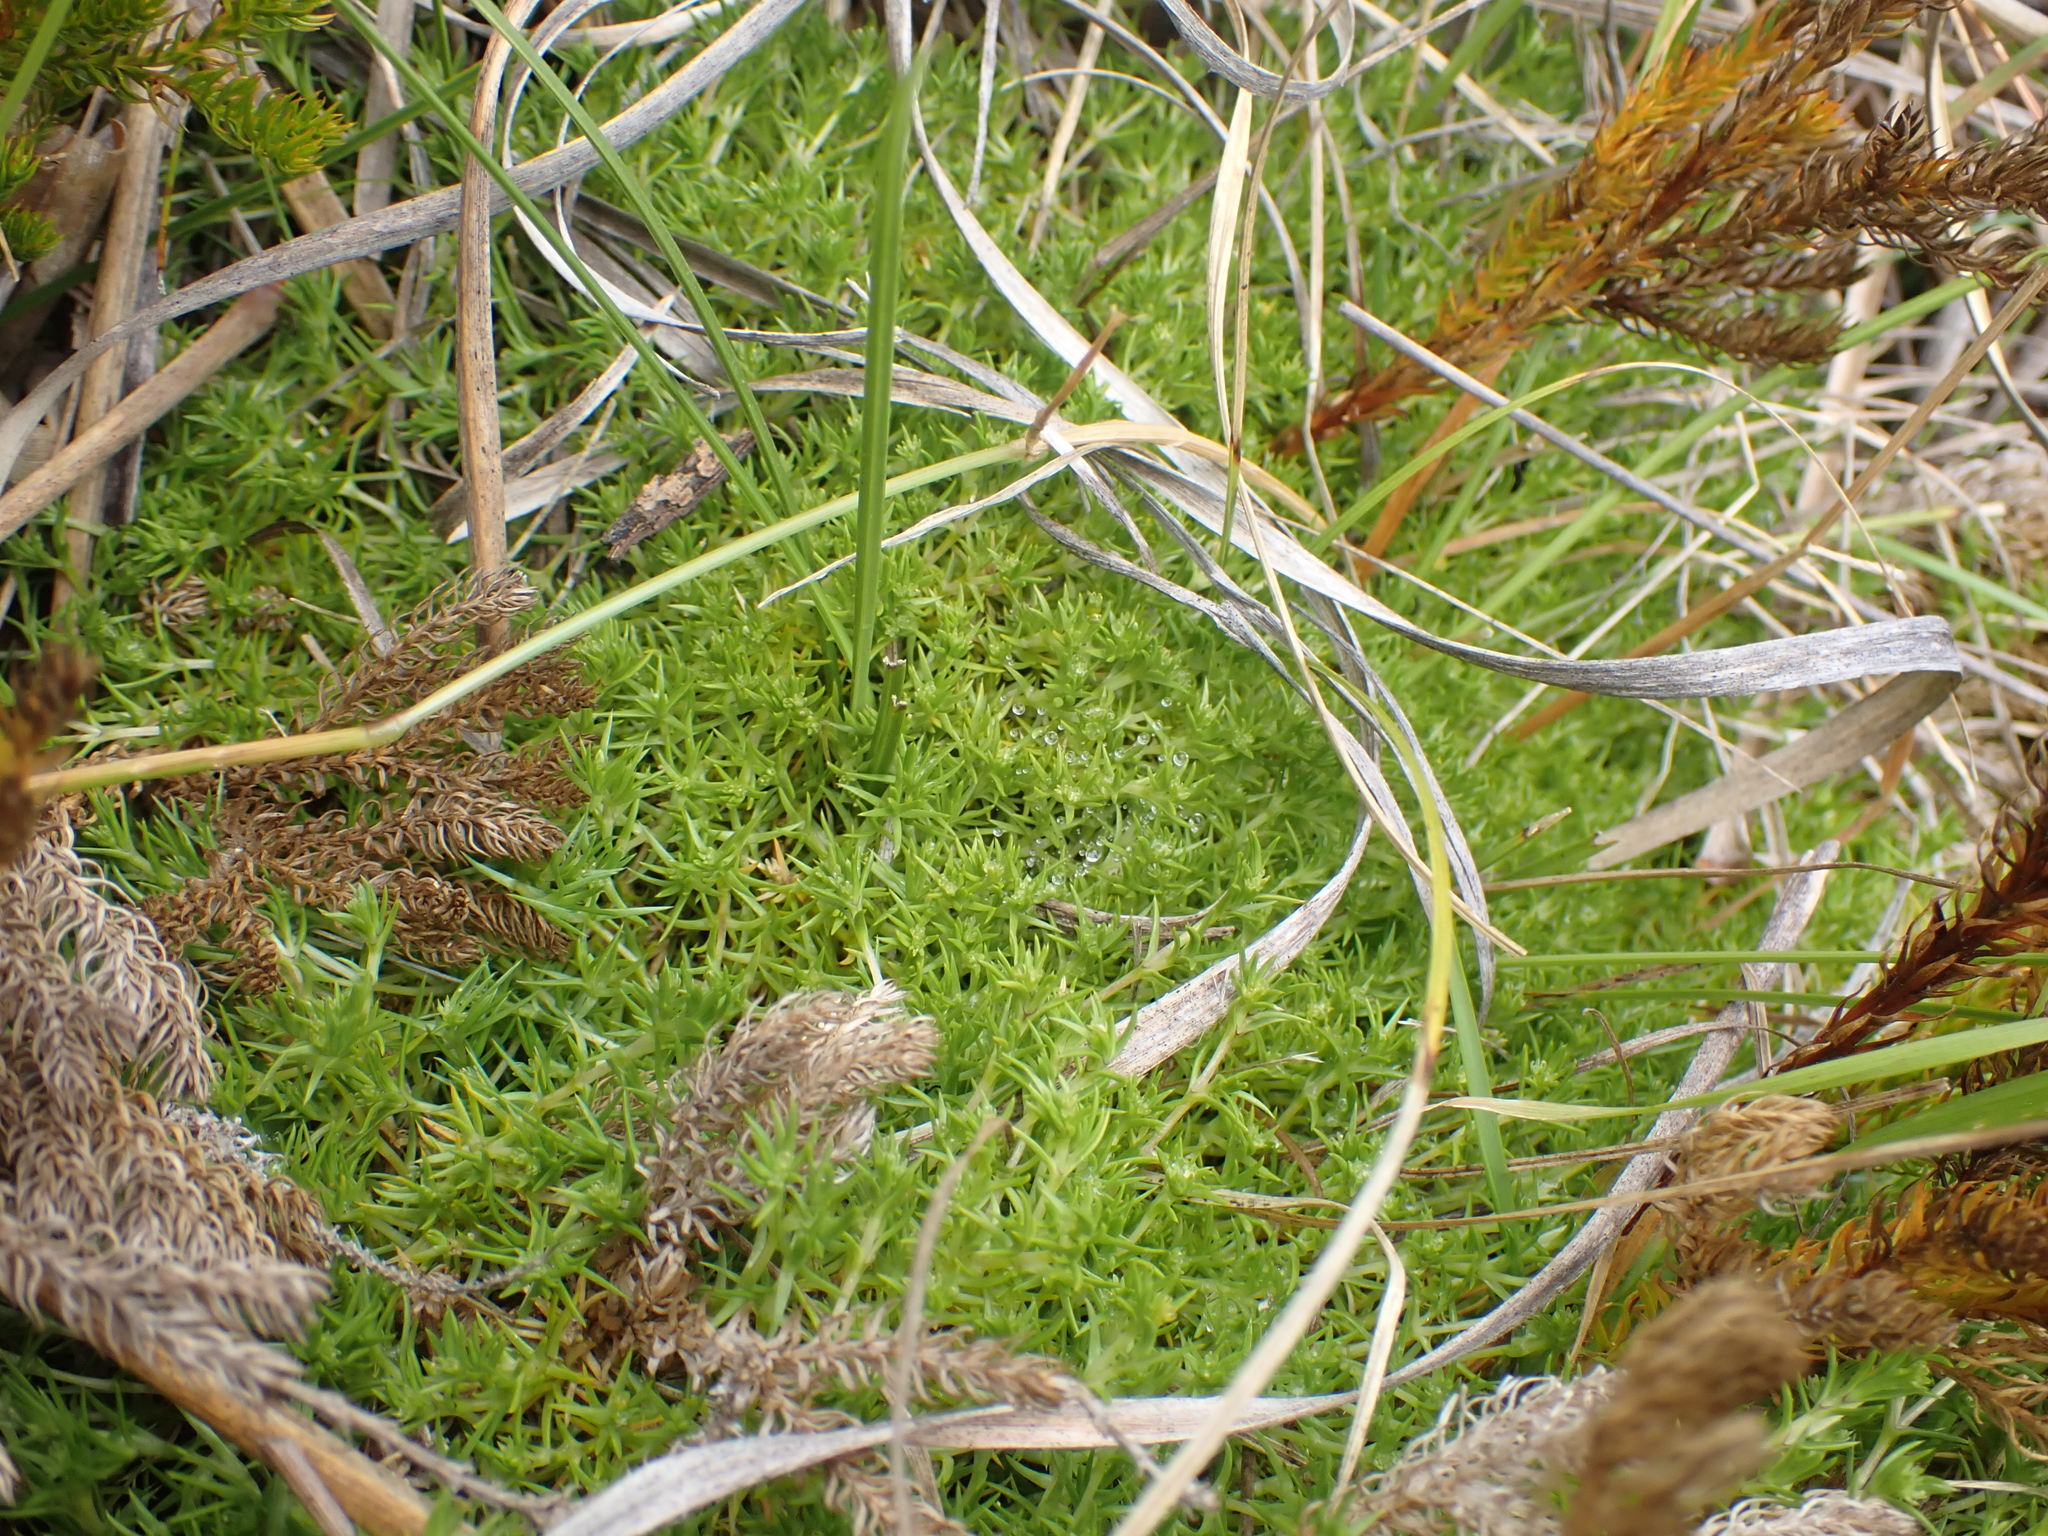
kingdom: Plantae
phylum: Tracheophyta
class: Magnoliopsida
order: Caryophyllales
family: Caryophyllaceae
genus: Scleranthus
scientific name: Scleranthus brockiei
